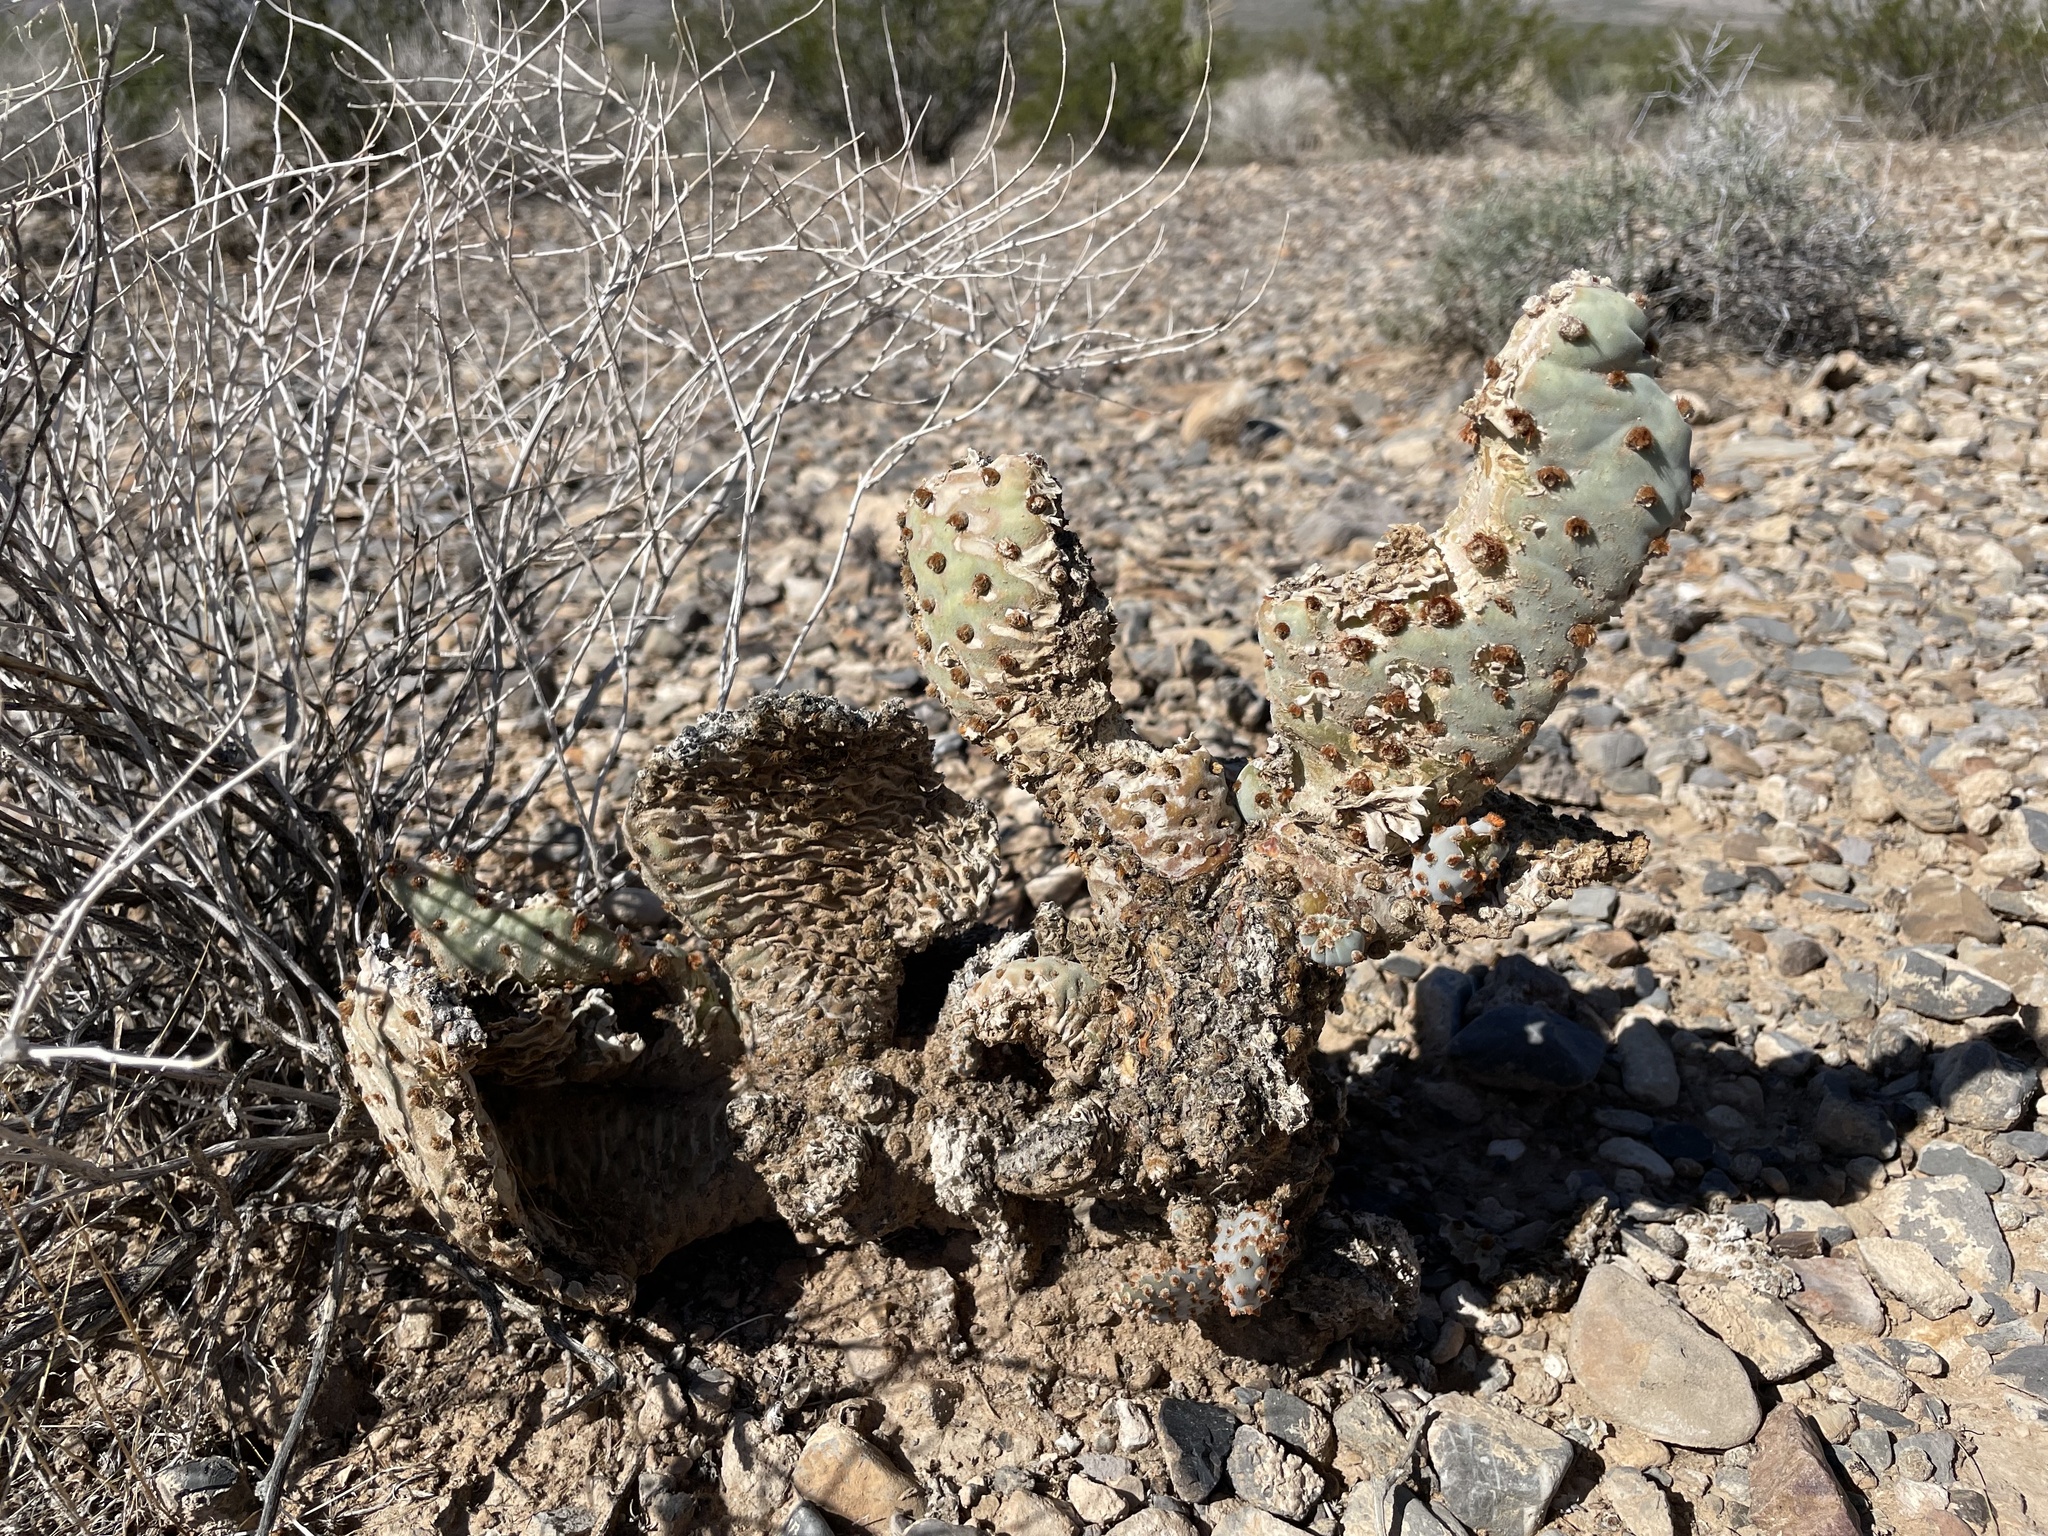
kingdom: Plantae
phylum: Tracheophyta
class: Magnoliopsida
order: Caryophyllales
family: Cactaceae
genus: Opuntia
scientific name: Opuntia basilaris
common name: Beavertail prickly-pear
